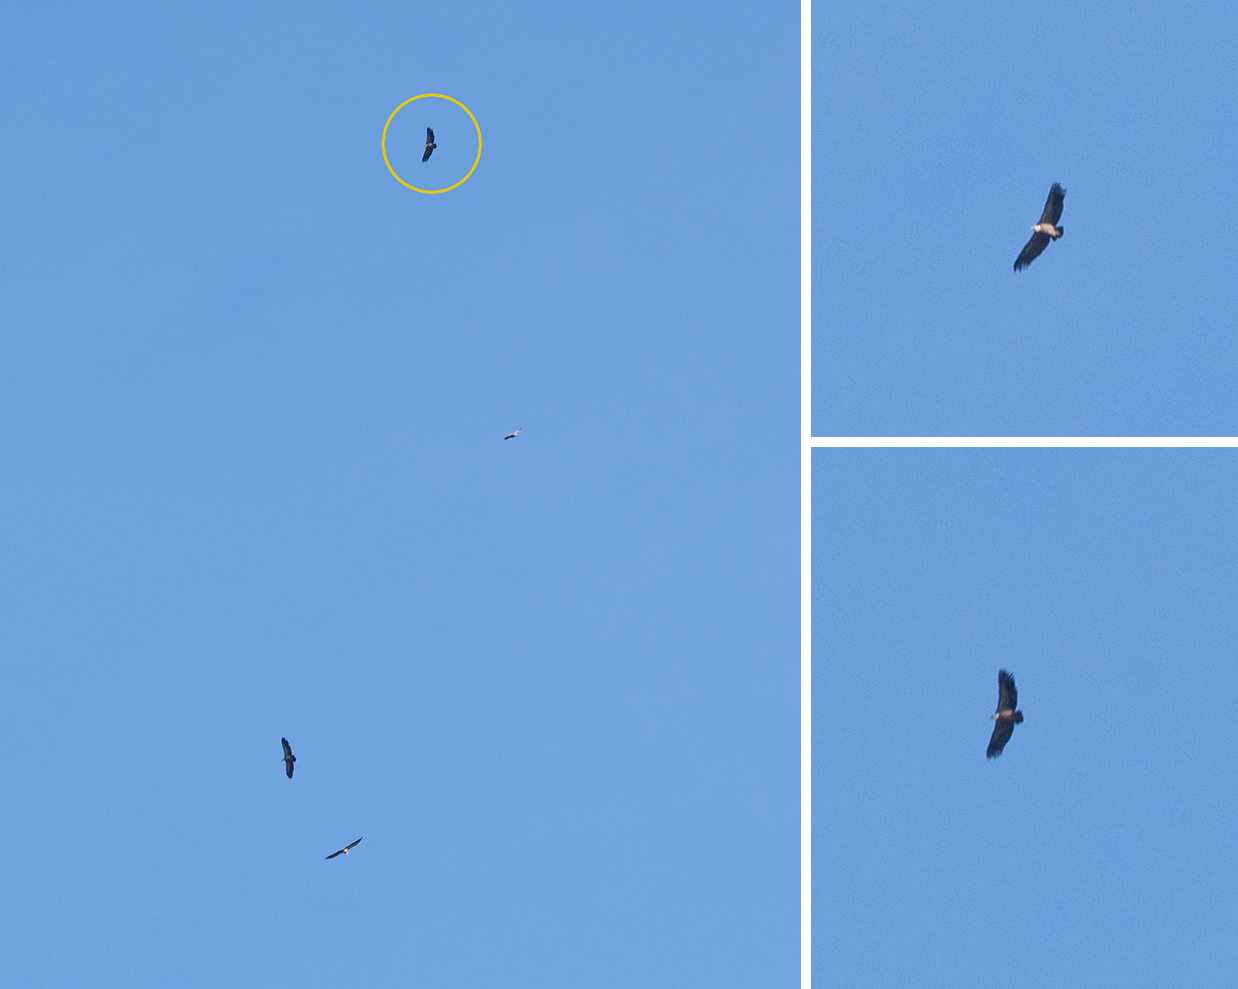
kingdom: Animalia
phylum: Chordata
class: Aves
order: Accipitriformes
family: Accipitridae
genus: Gyps
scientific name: Gyps fulvus
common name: Griffon vulture
